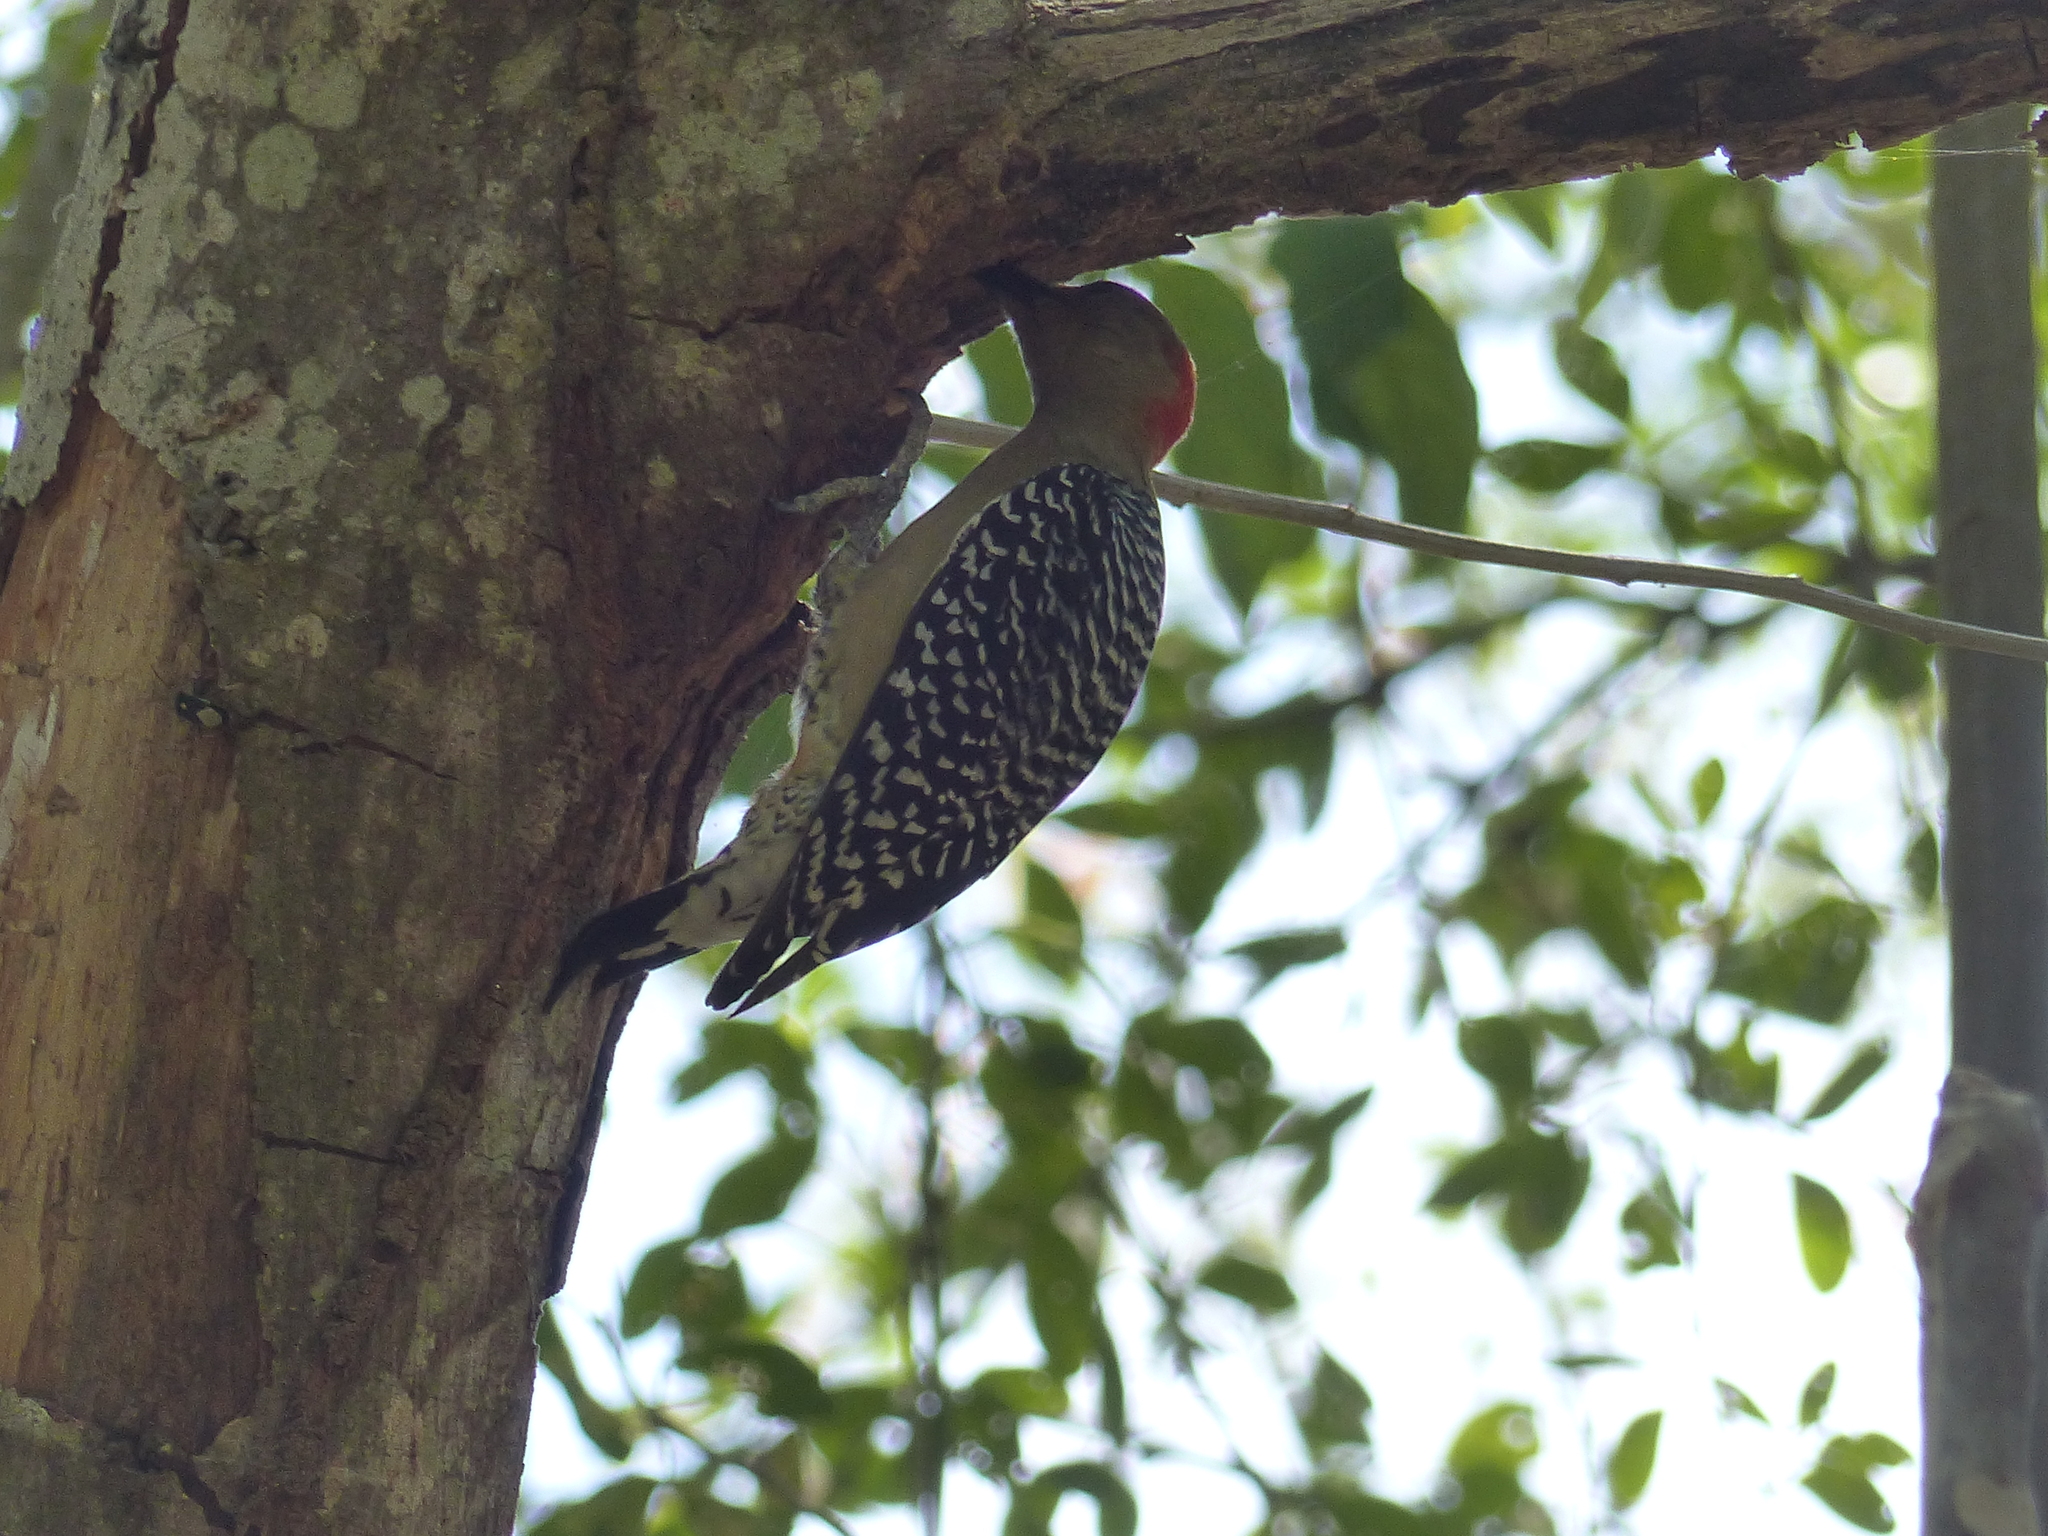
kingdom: Animalia
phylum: Chordata
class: Aves
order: Piciformes
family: Picidae
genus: Melanerpes
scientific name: Melanerpes rubricapillus
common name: Red-crowned woodpecker
